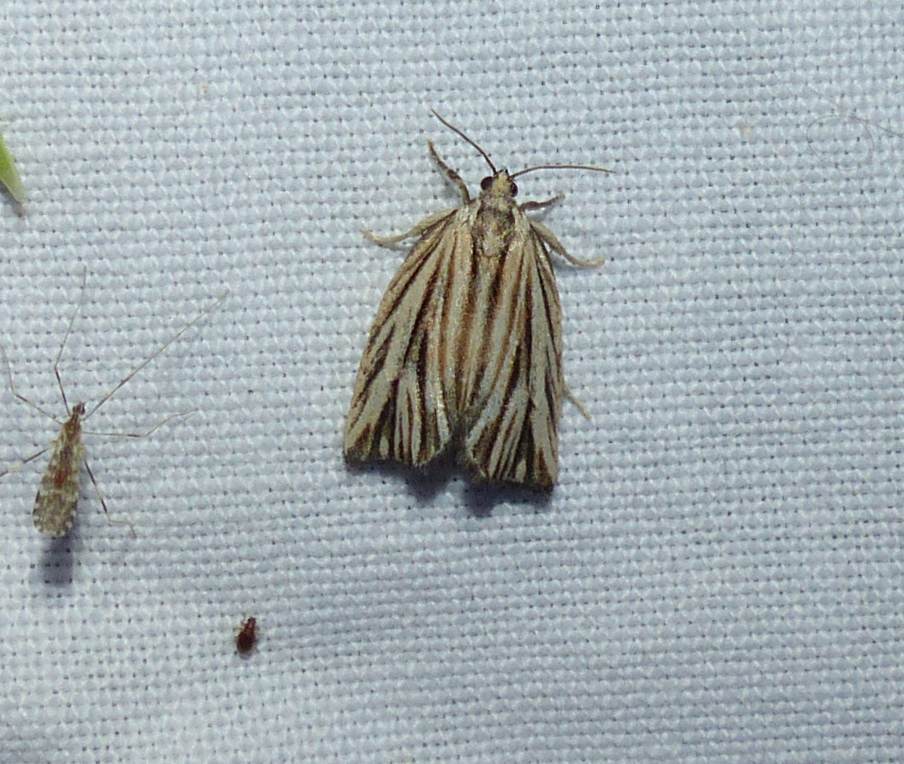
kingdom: Animalia
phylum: Arthropoda
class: Insecta
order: Lepidoptera
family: Tortricidae
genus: Archips
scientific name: Archips strianus
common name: Striated tortrix moth
